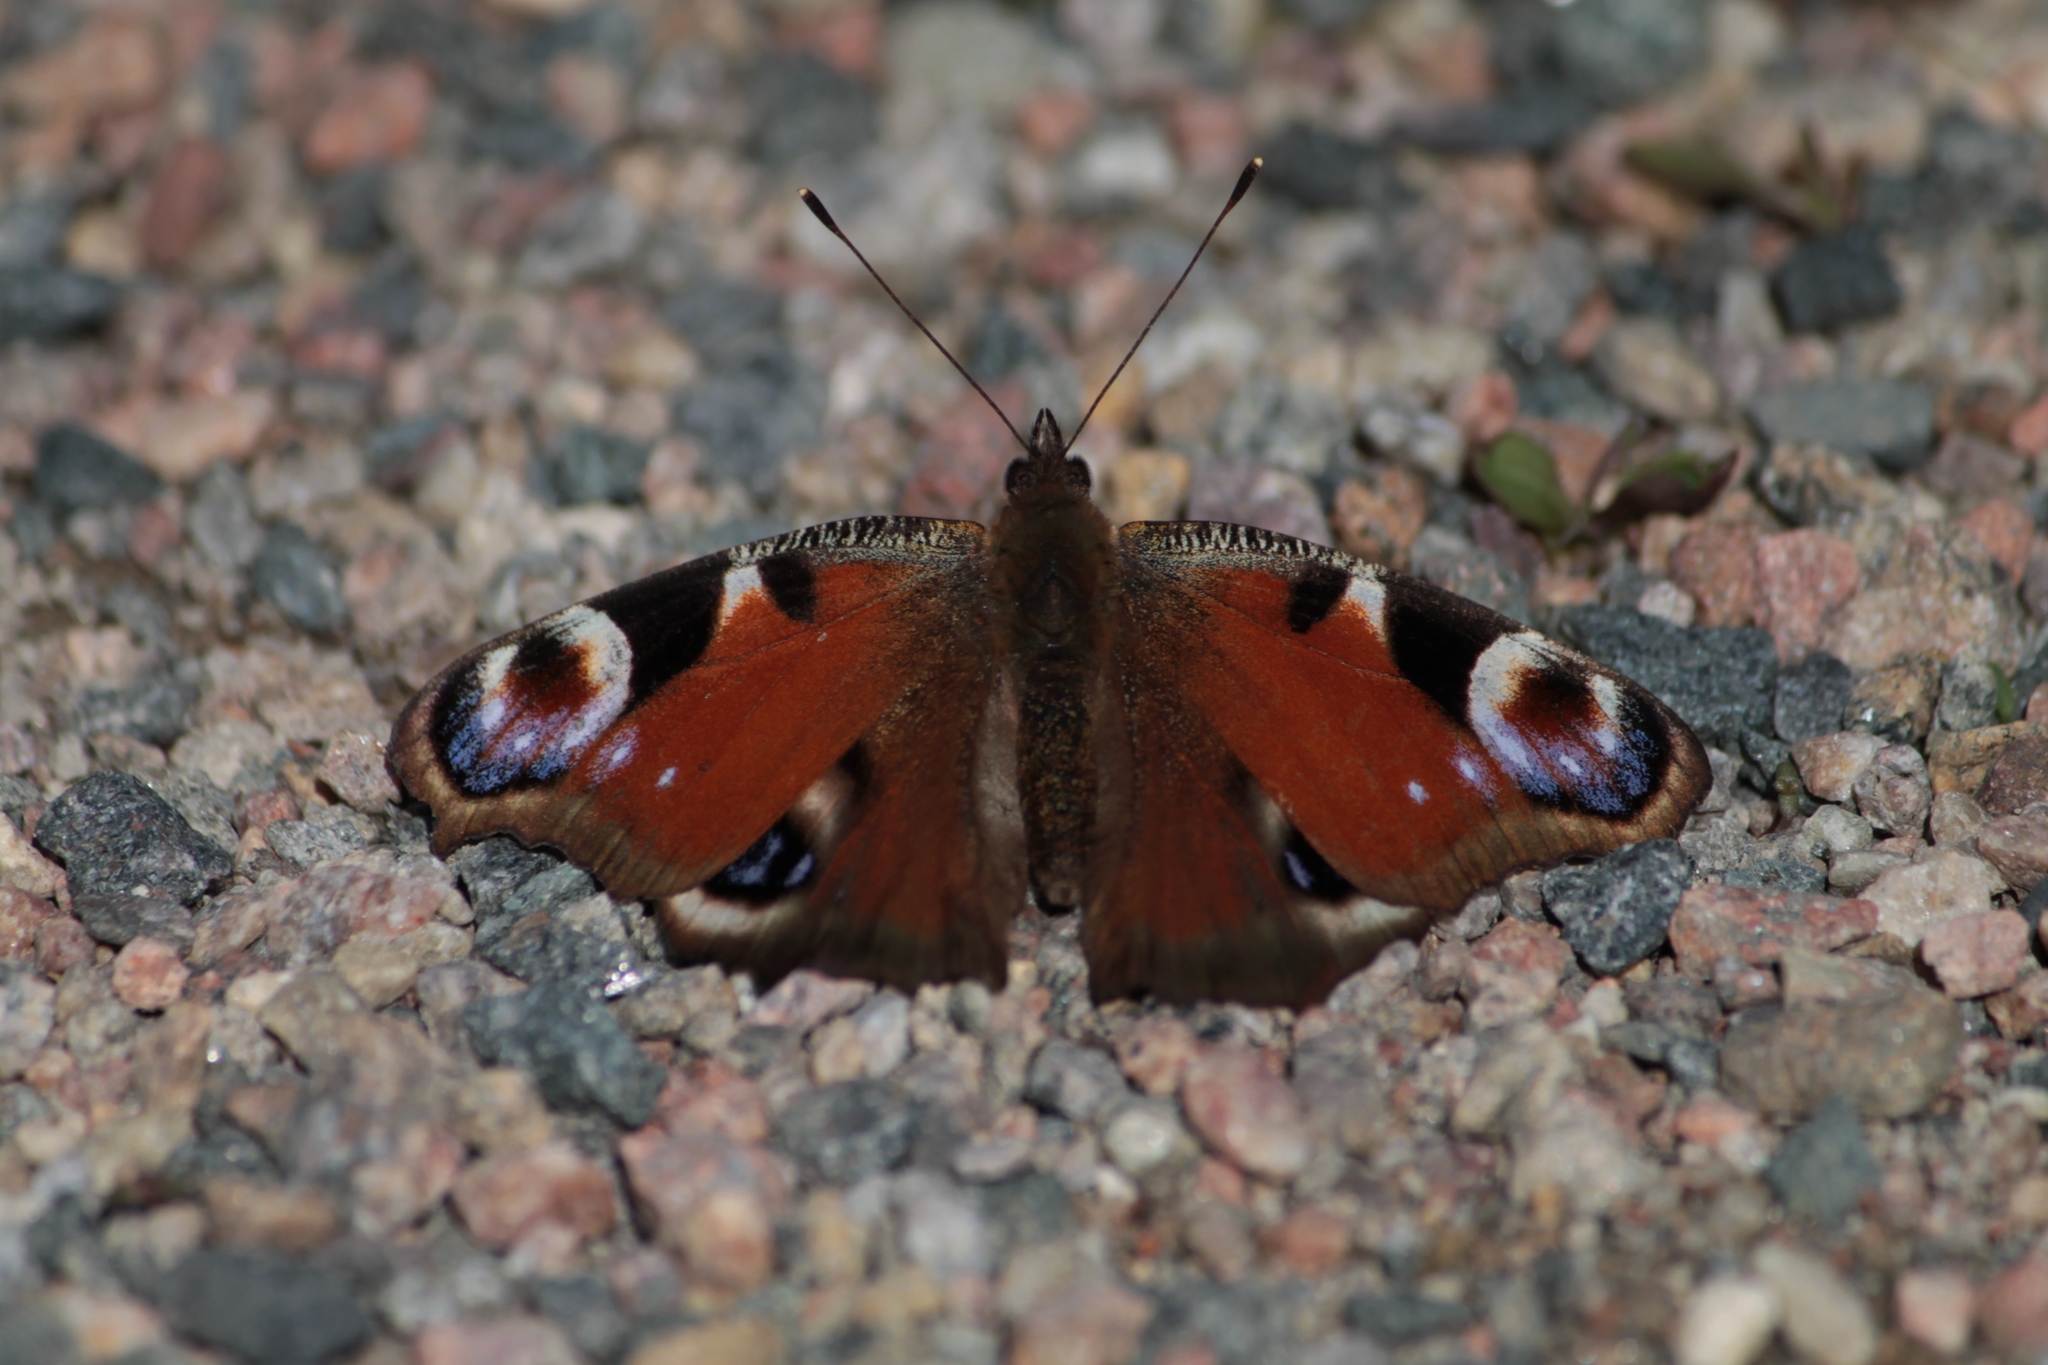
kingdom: Animalia
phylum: Arthropoda
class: Insecta
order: Lepidoptera
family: Nymphalidae
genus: Aglais
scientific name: Aglais io
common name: Peacock
